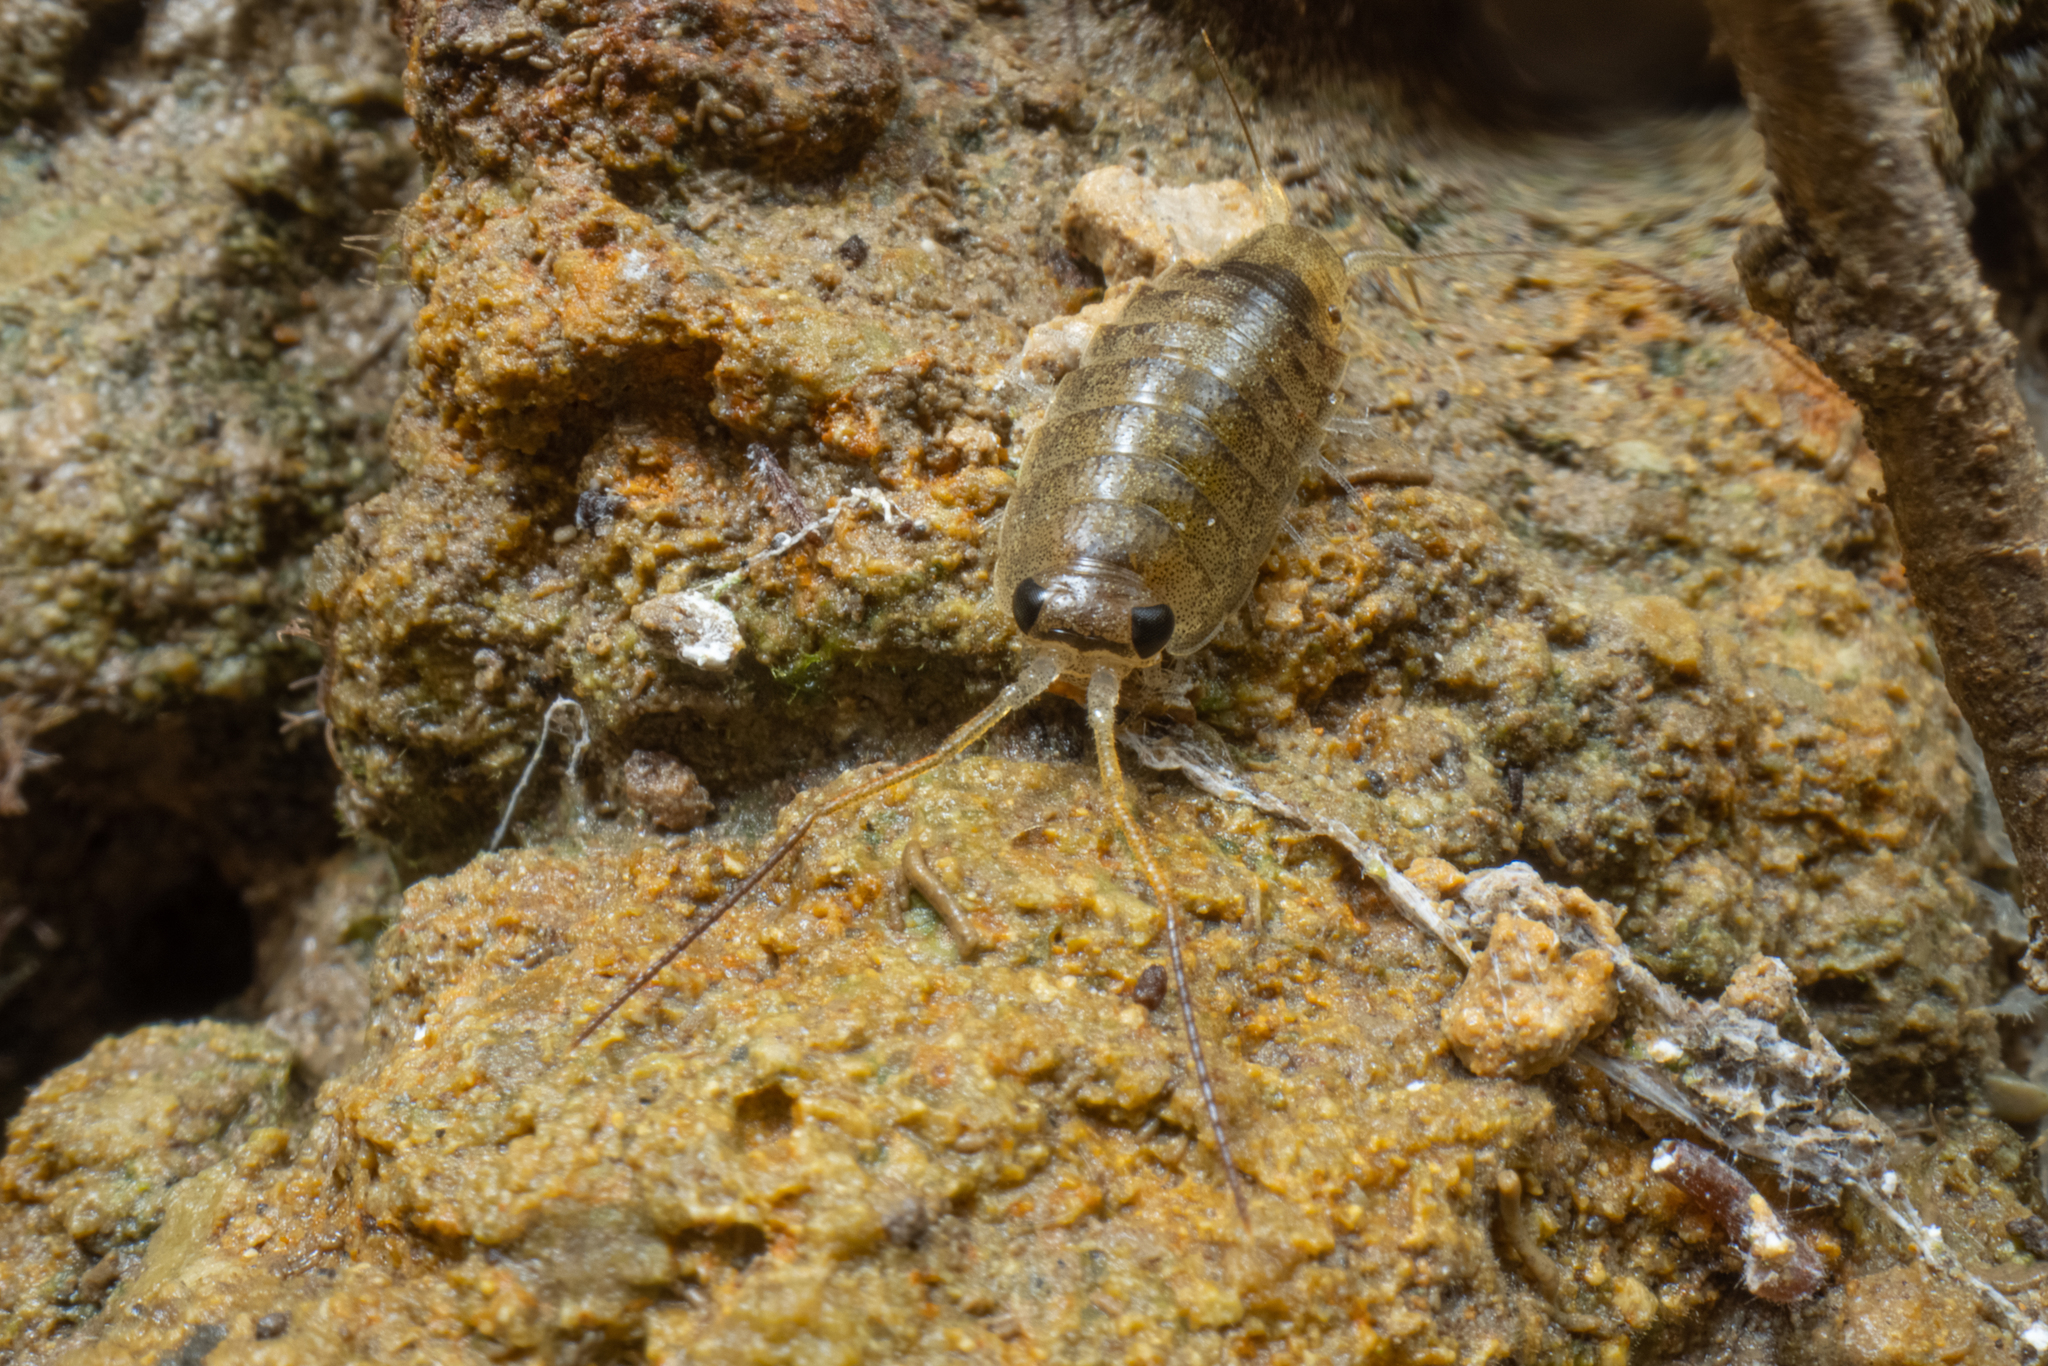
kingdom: Animalia
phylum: Arthropoda
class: Malacostraca
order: Isopoda
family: Ligiidae
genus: Ligia
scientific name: Ligia novizealandiae
